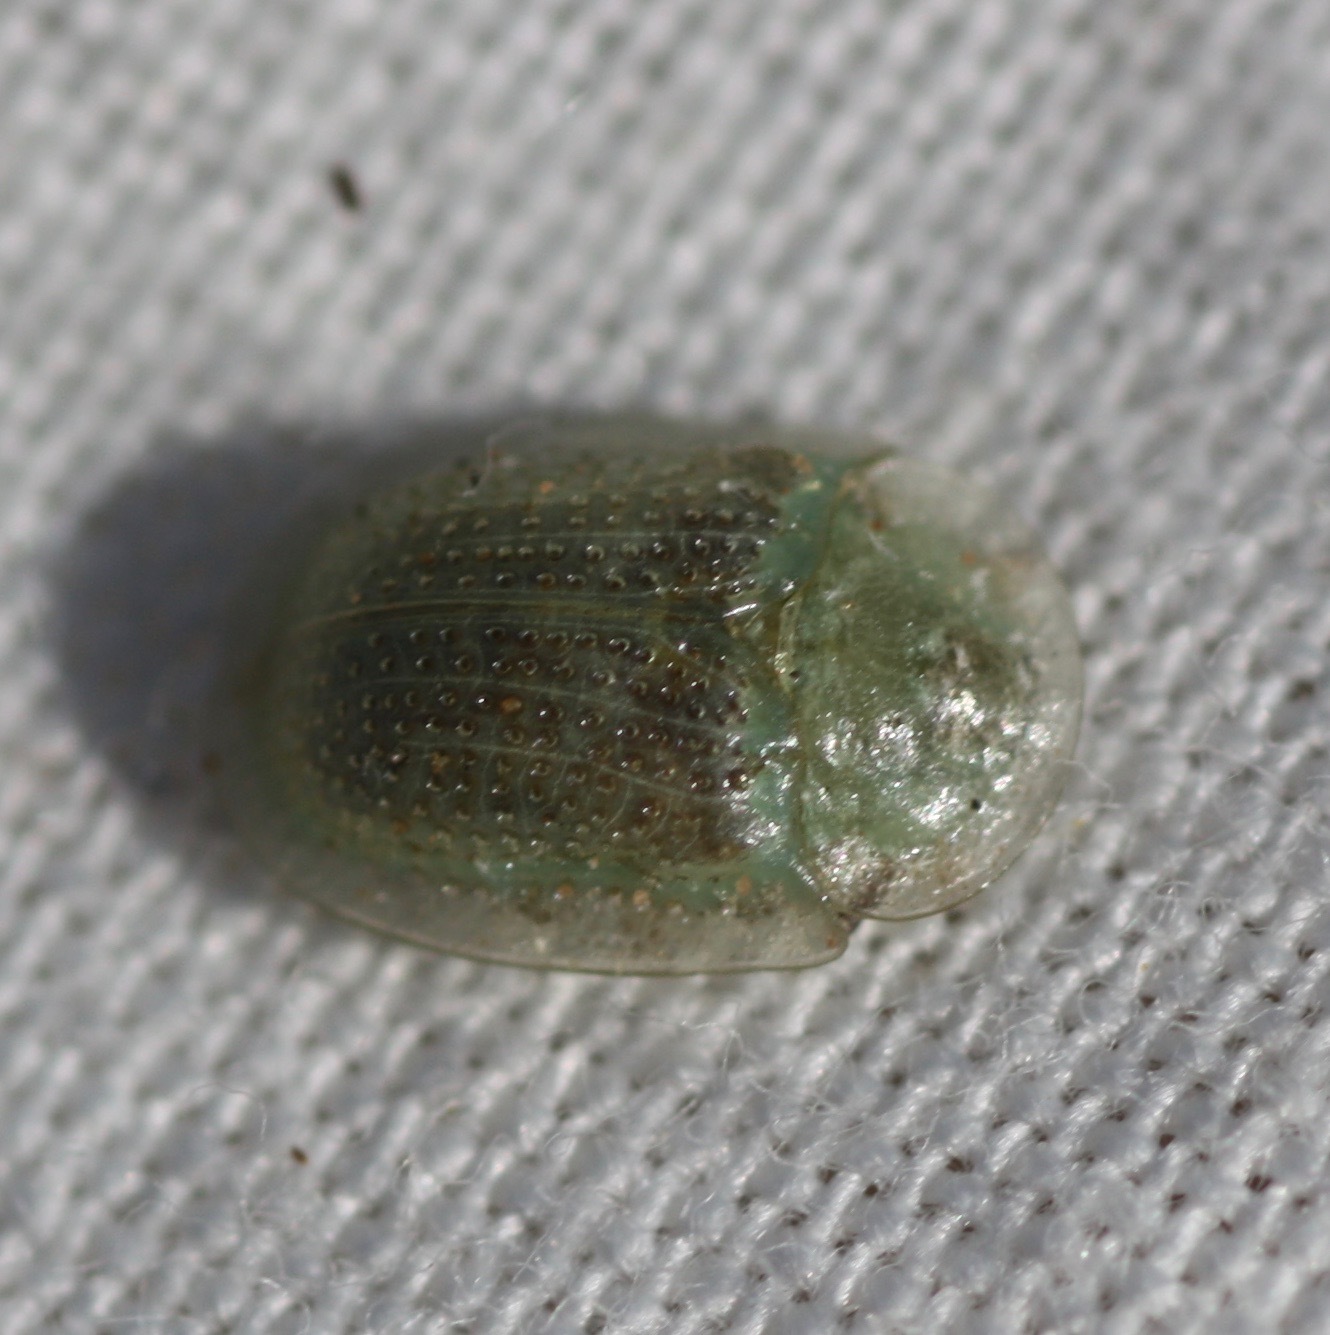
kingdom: Animalia
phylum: Arthropoda
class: Insecta
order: Coleoptera
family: Chrysomelidae
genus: Gratiana
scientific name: Gratiana pallidula
